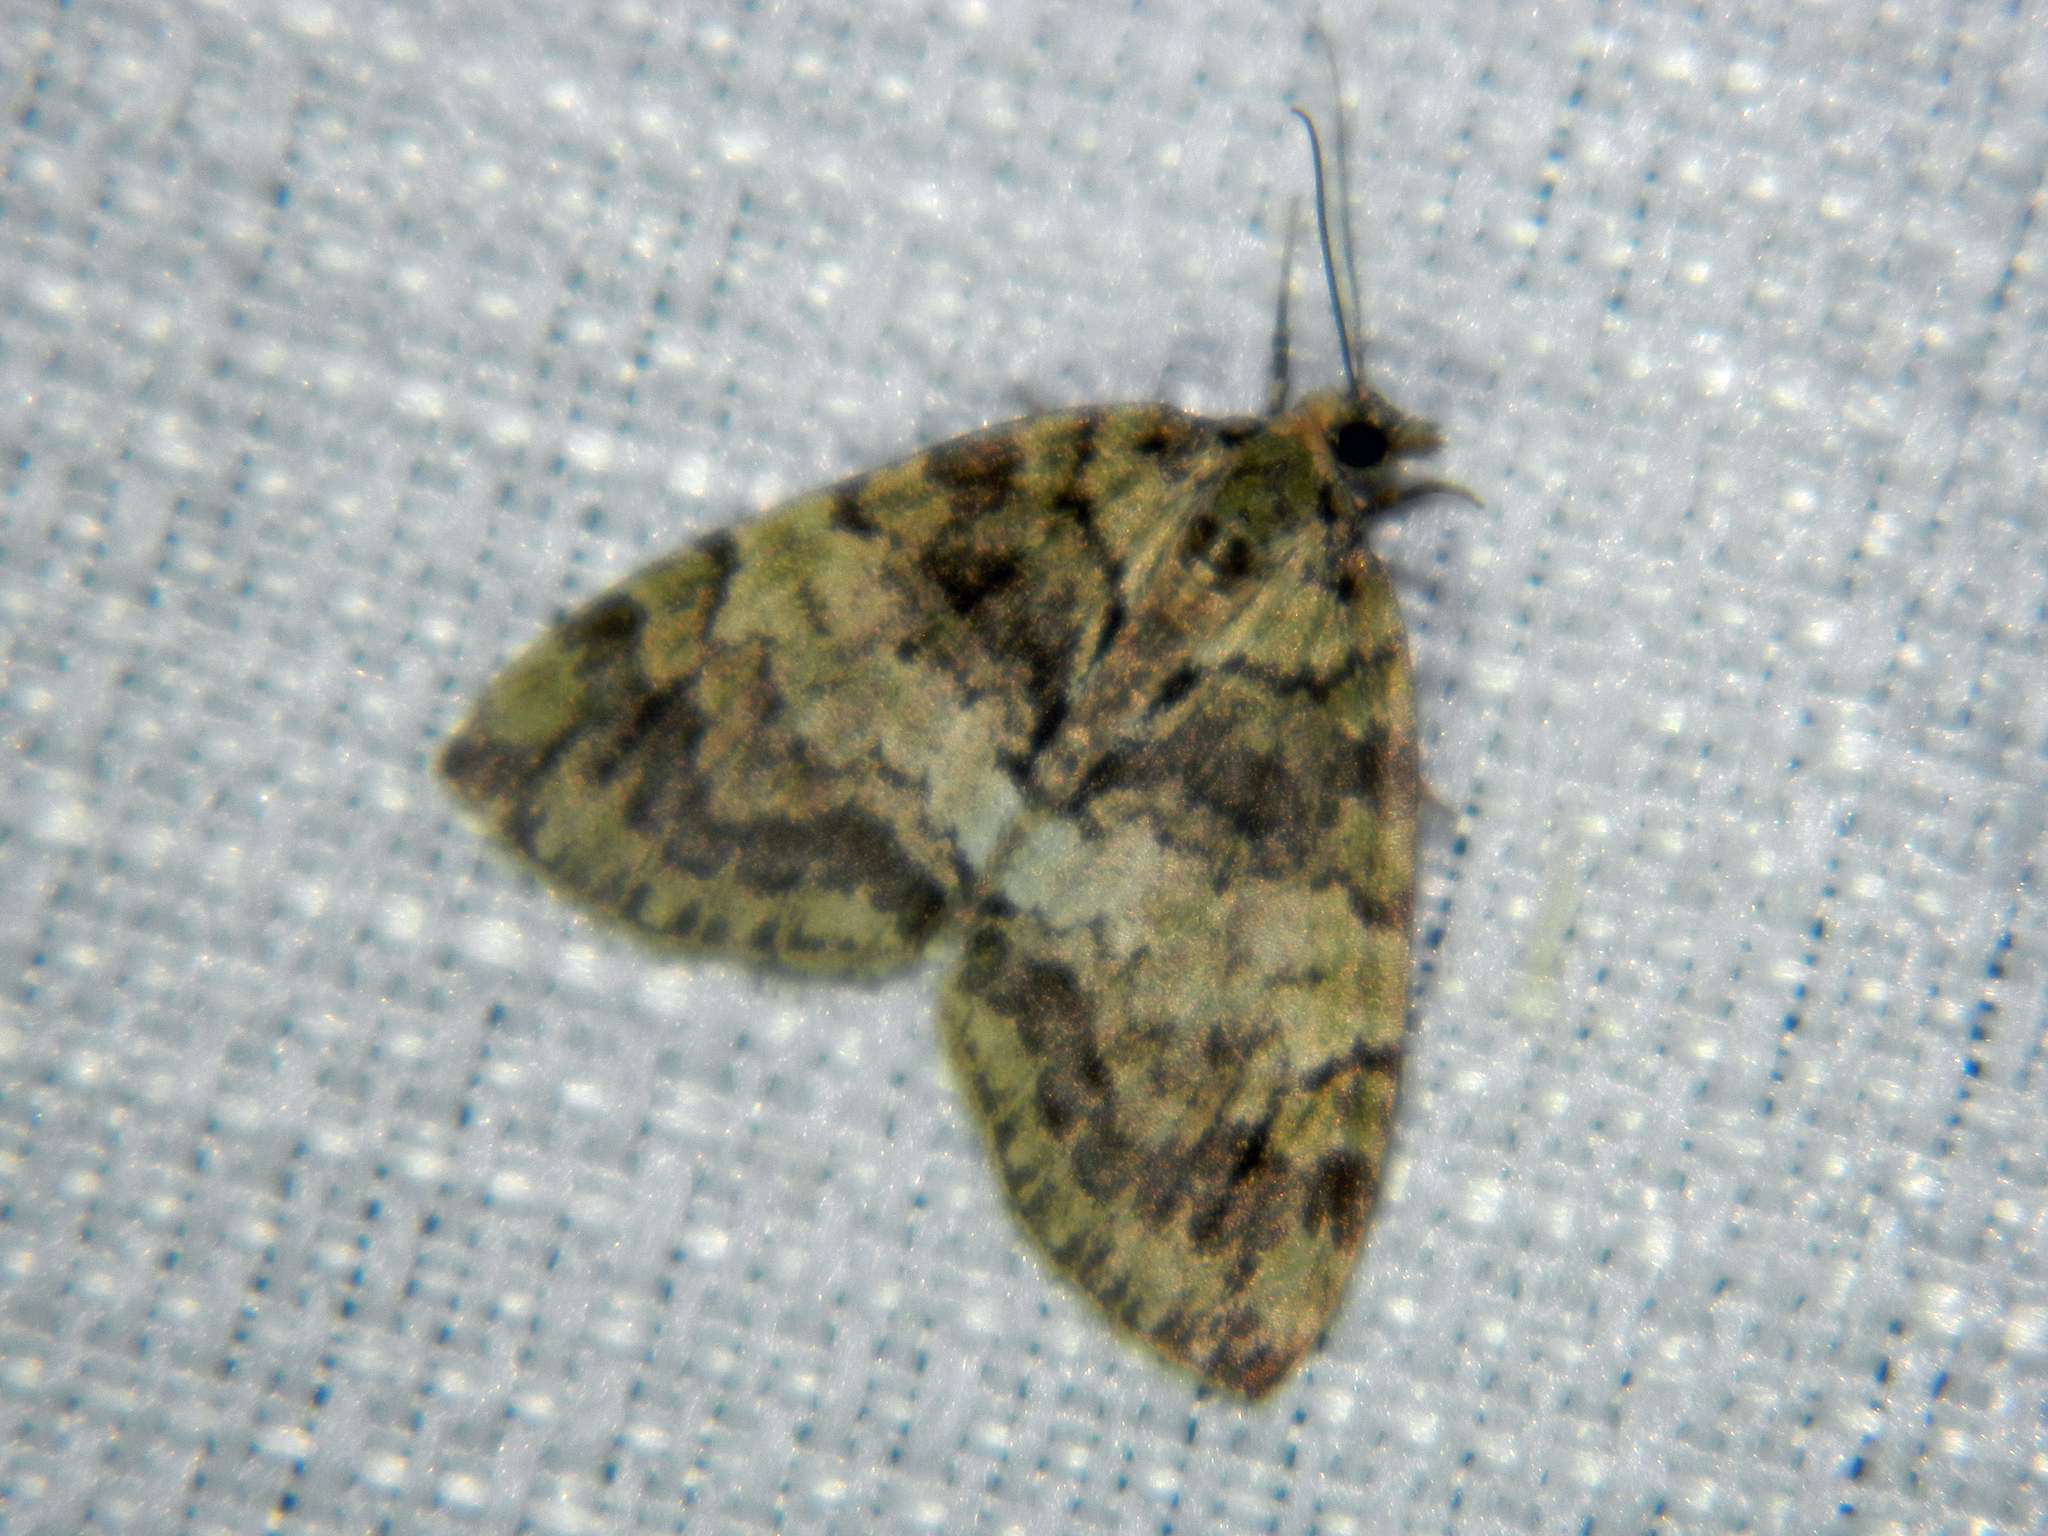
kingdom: Animalia
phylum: Arthropoda
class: Insecta
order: Lepidoptera
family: Geometridae
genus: Hydriomena
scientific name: Hydriomena renunciata
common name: Renounced hydriomena moth
